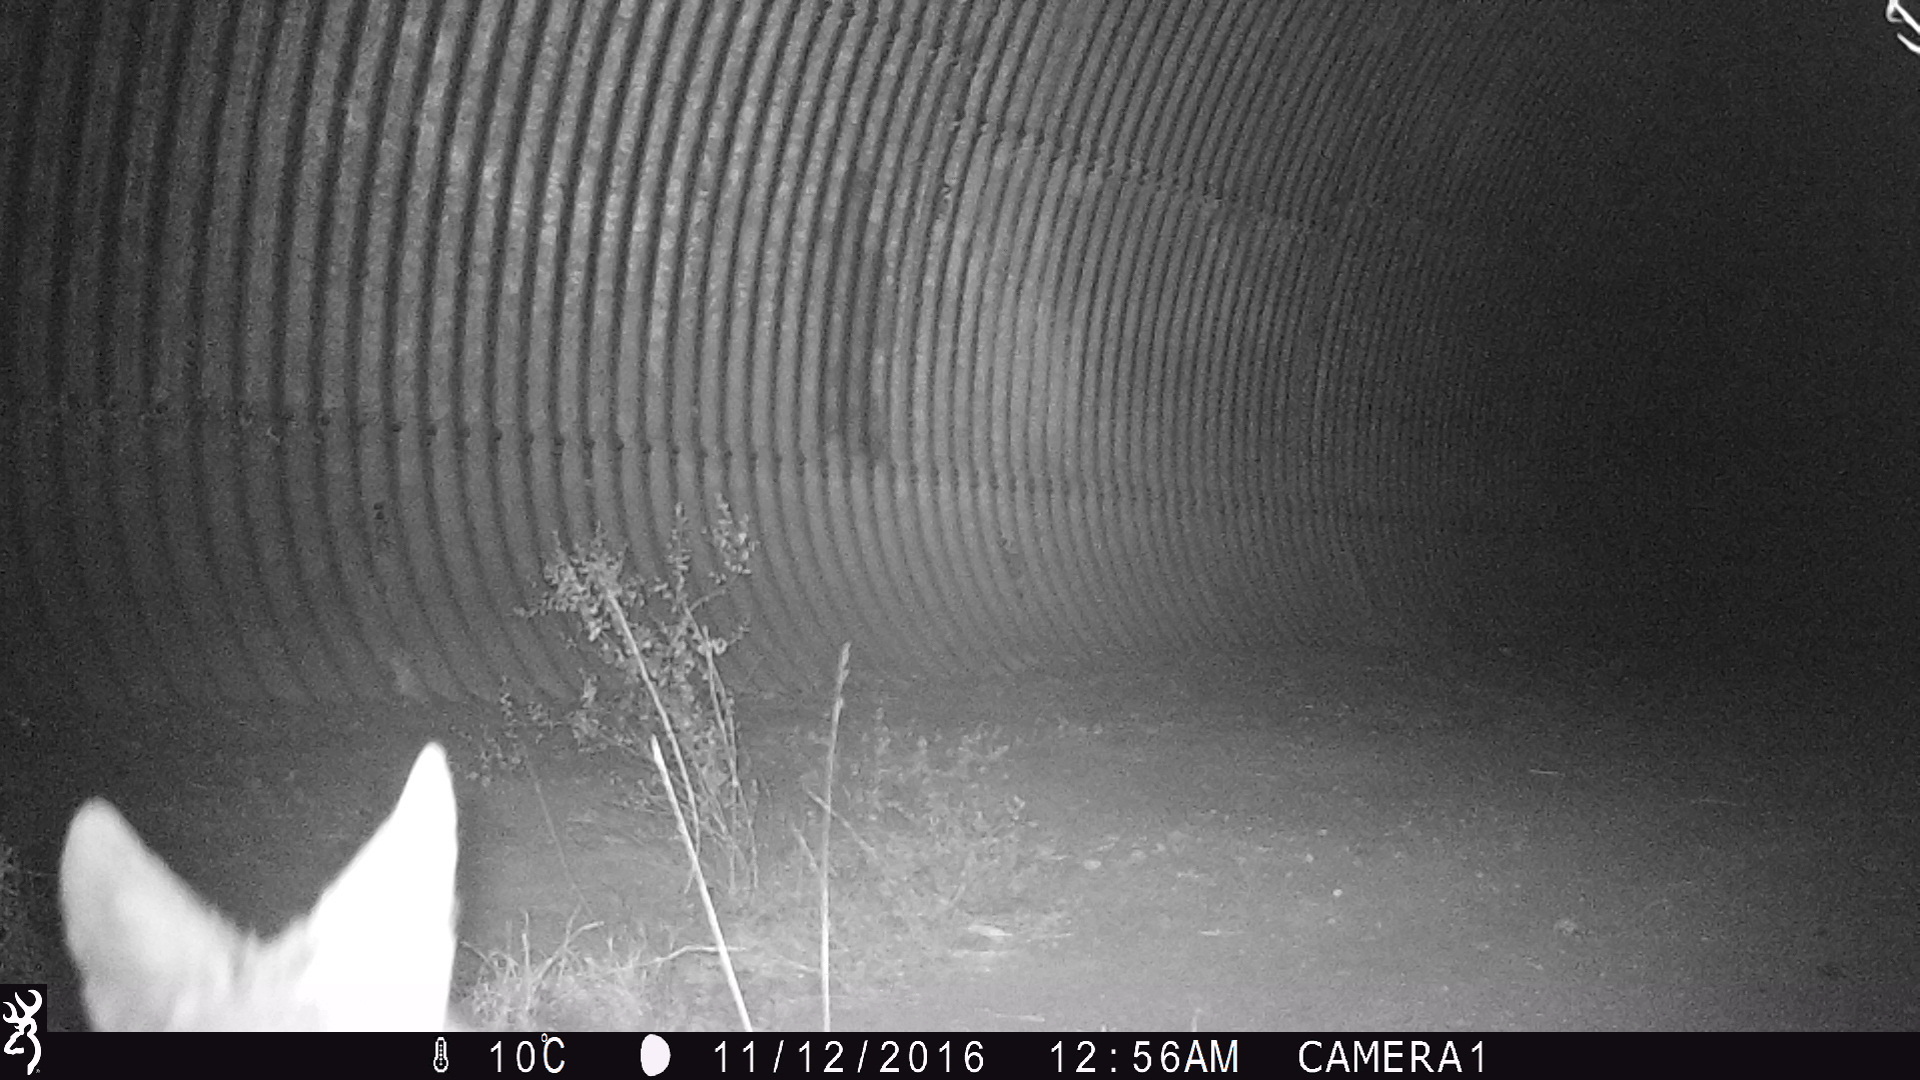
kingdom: Animalia
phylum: Chordata
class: Mammalia
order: Carnivora
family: Canidae
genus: Canis
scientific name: Canis latrans
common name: Coyote
